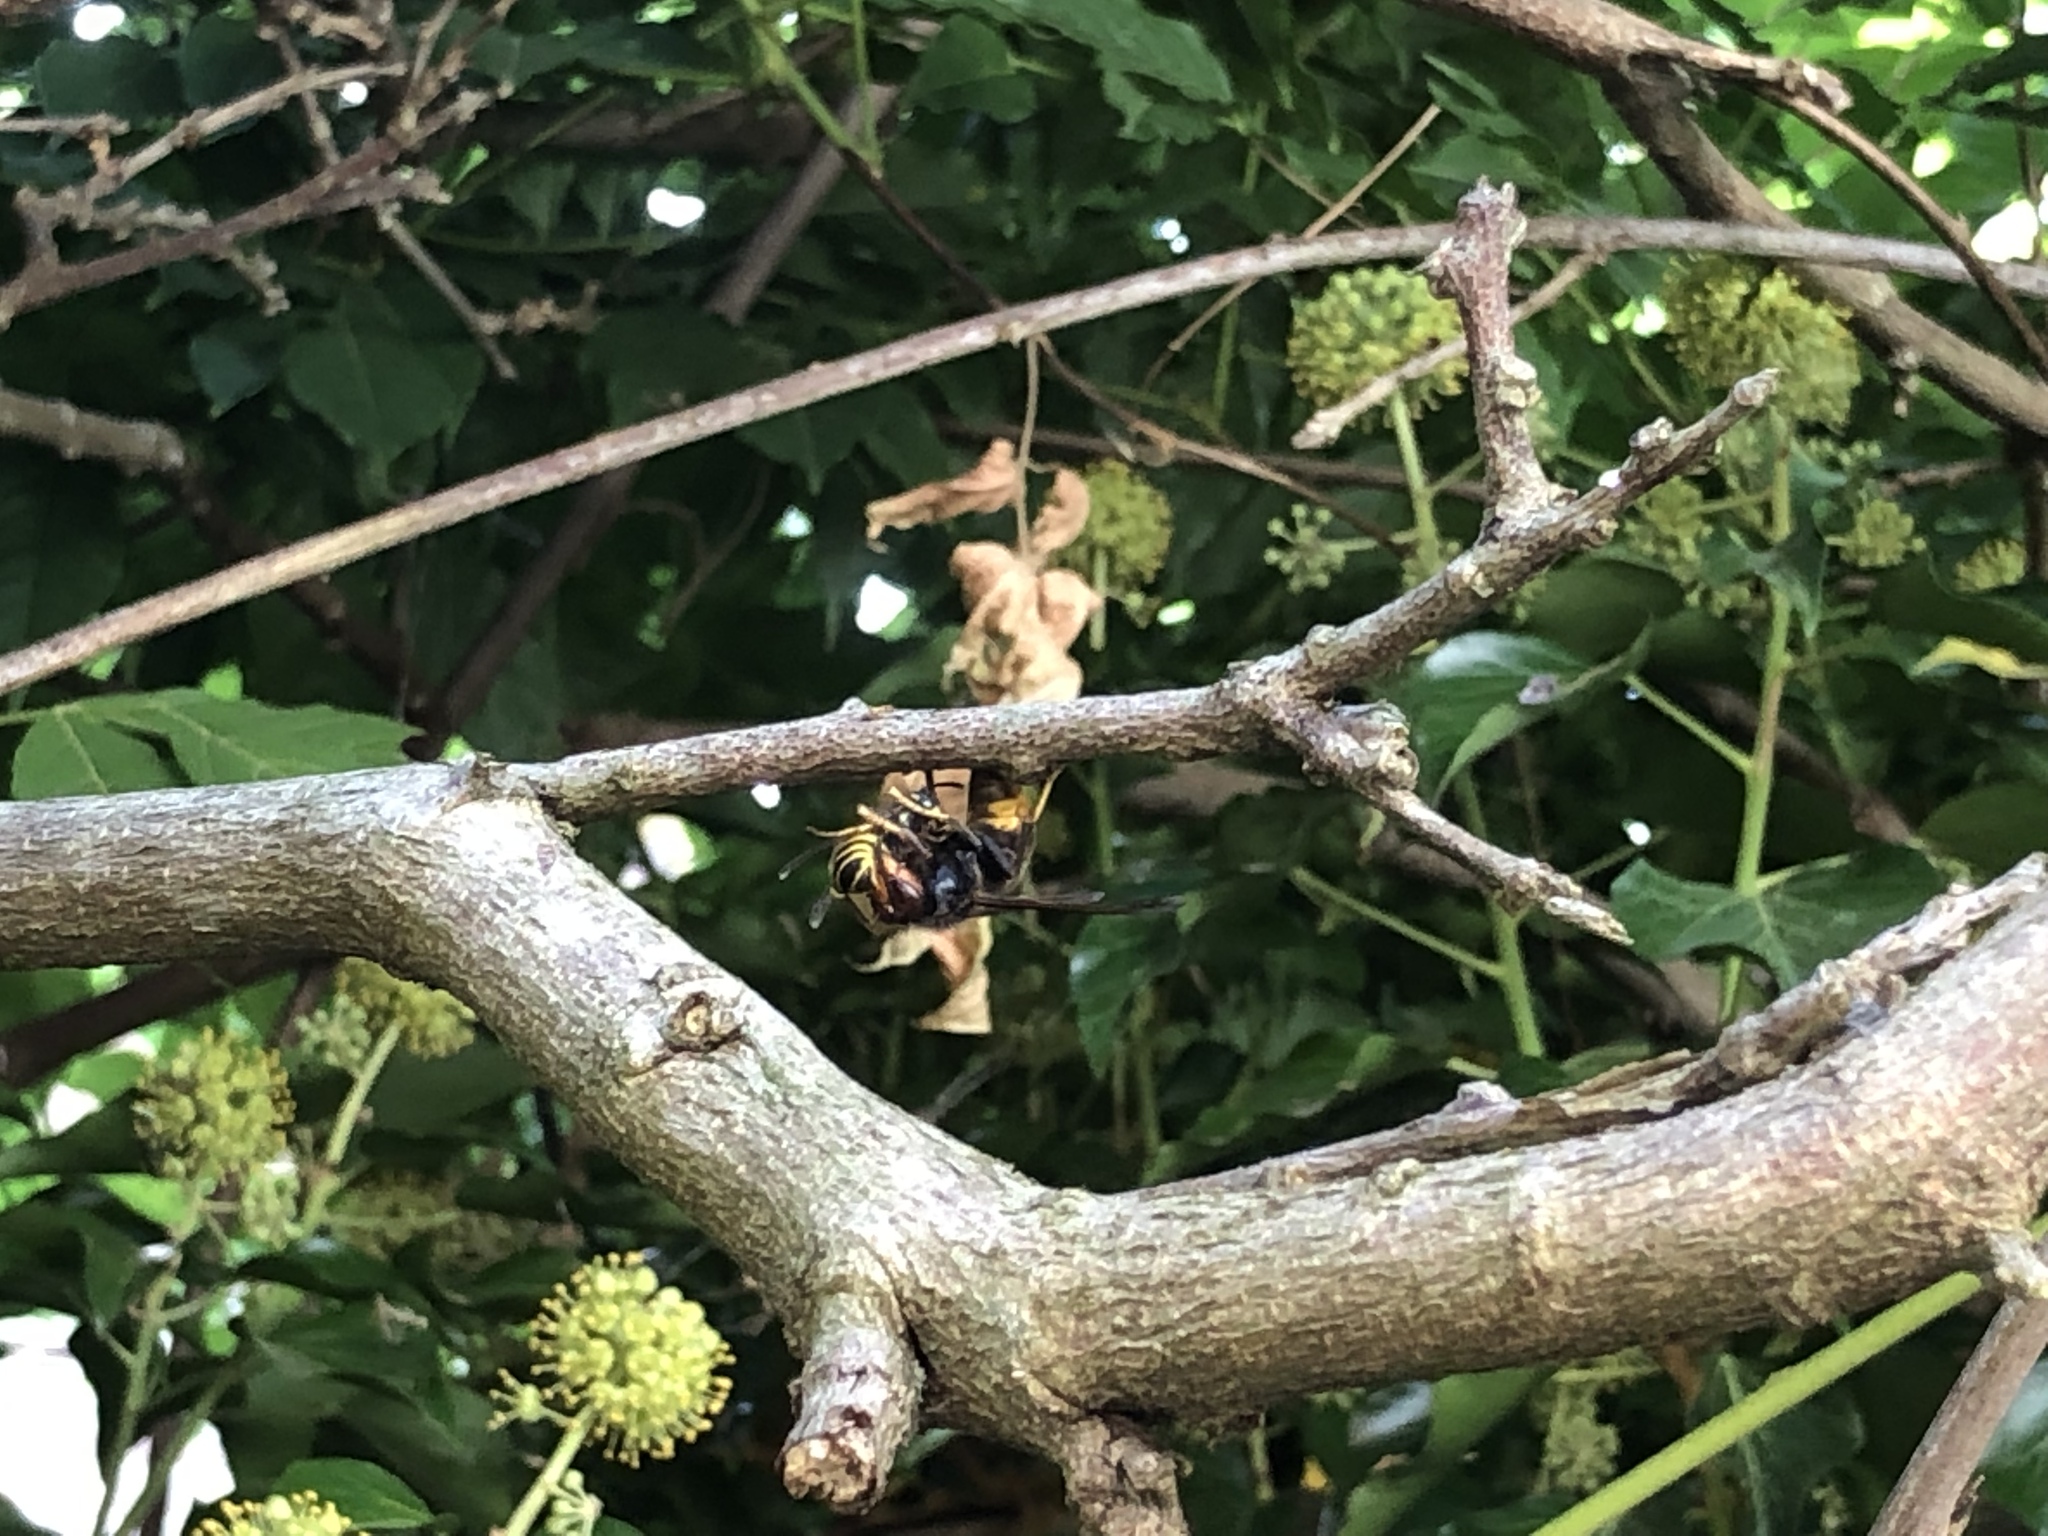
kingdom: Animalia
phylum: Arthropoda
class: Insecta
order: Hymenoptera
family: Vespidae
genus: Vespa
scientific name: Vespa velutina
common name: Asian hornet
